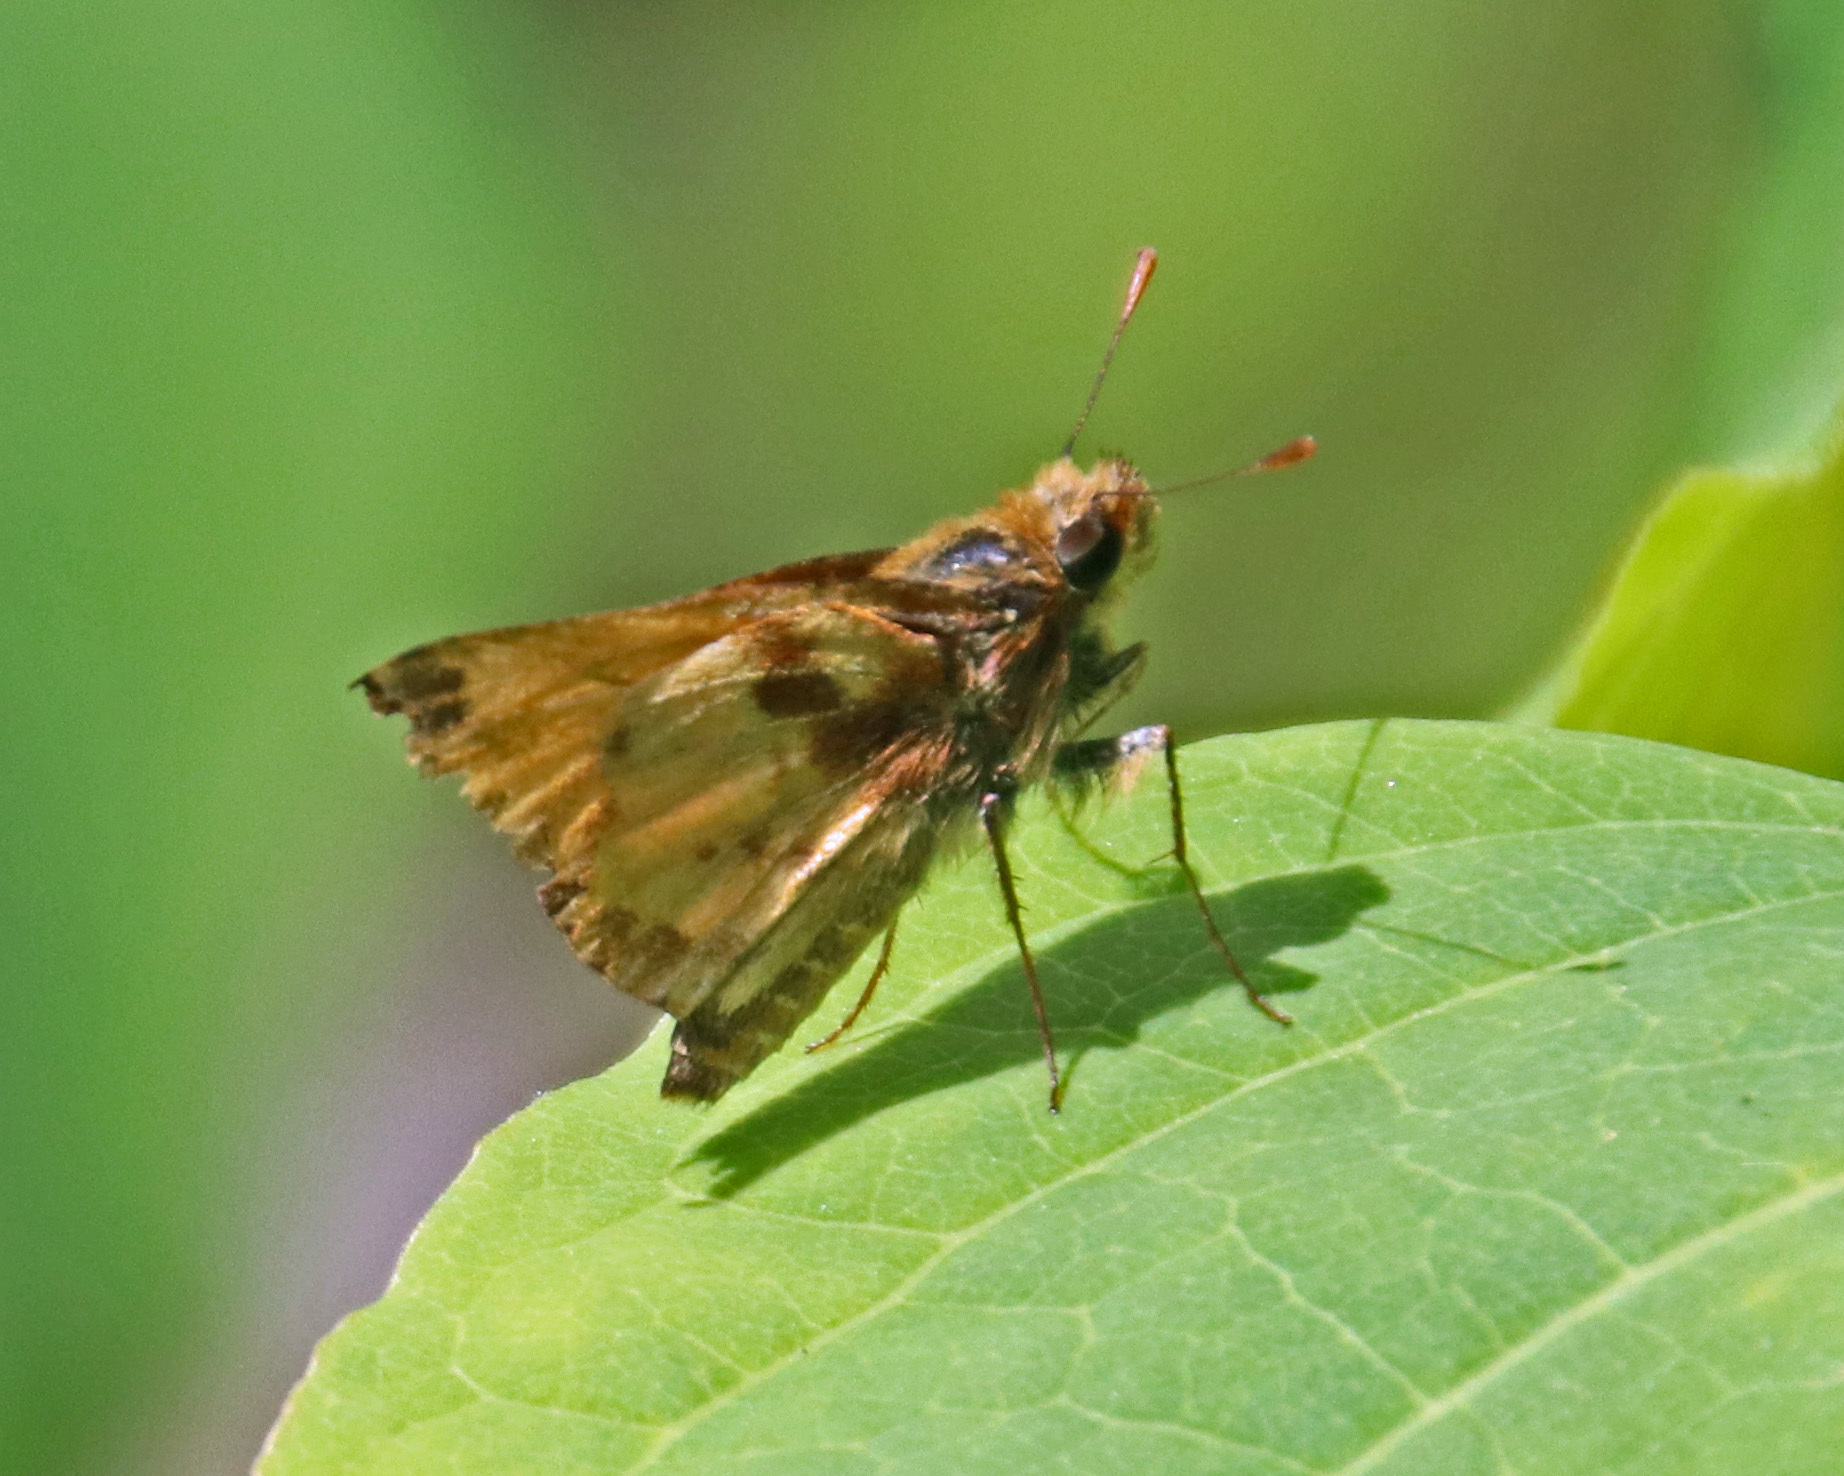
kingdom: Animalia
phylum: Arthropoda
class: Insecta
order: Lepidoptera
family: Hesperiidae
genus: Lon
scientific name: Lon zabulon
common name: Zabulon skipper
